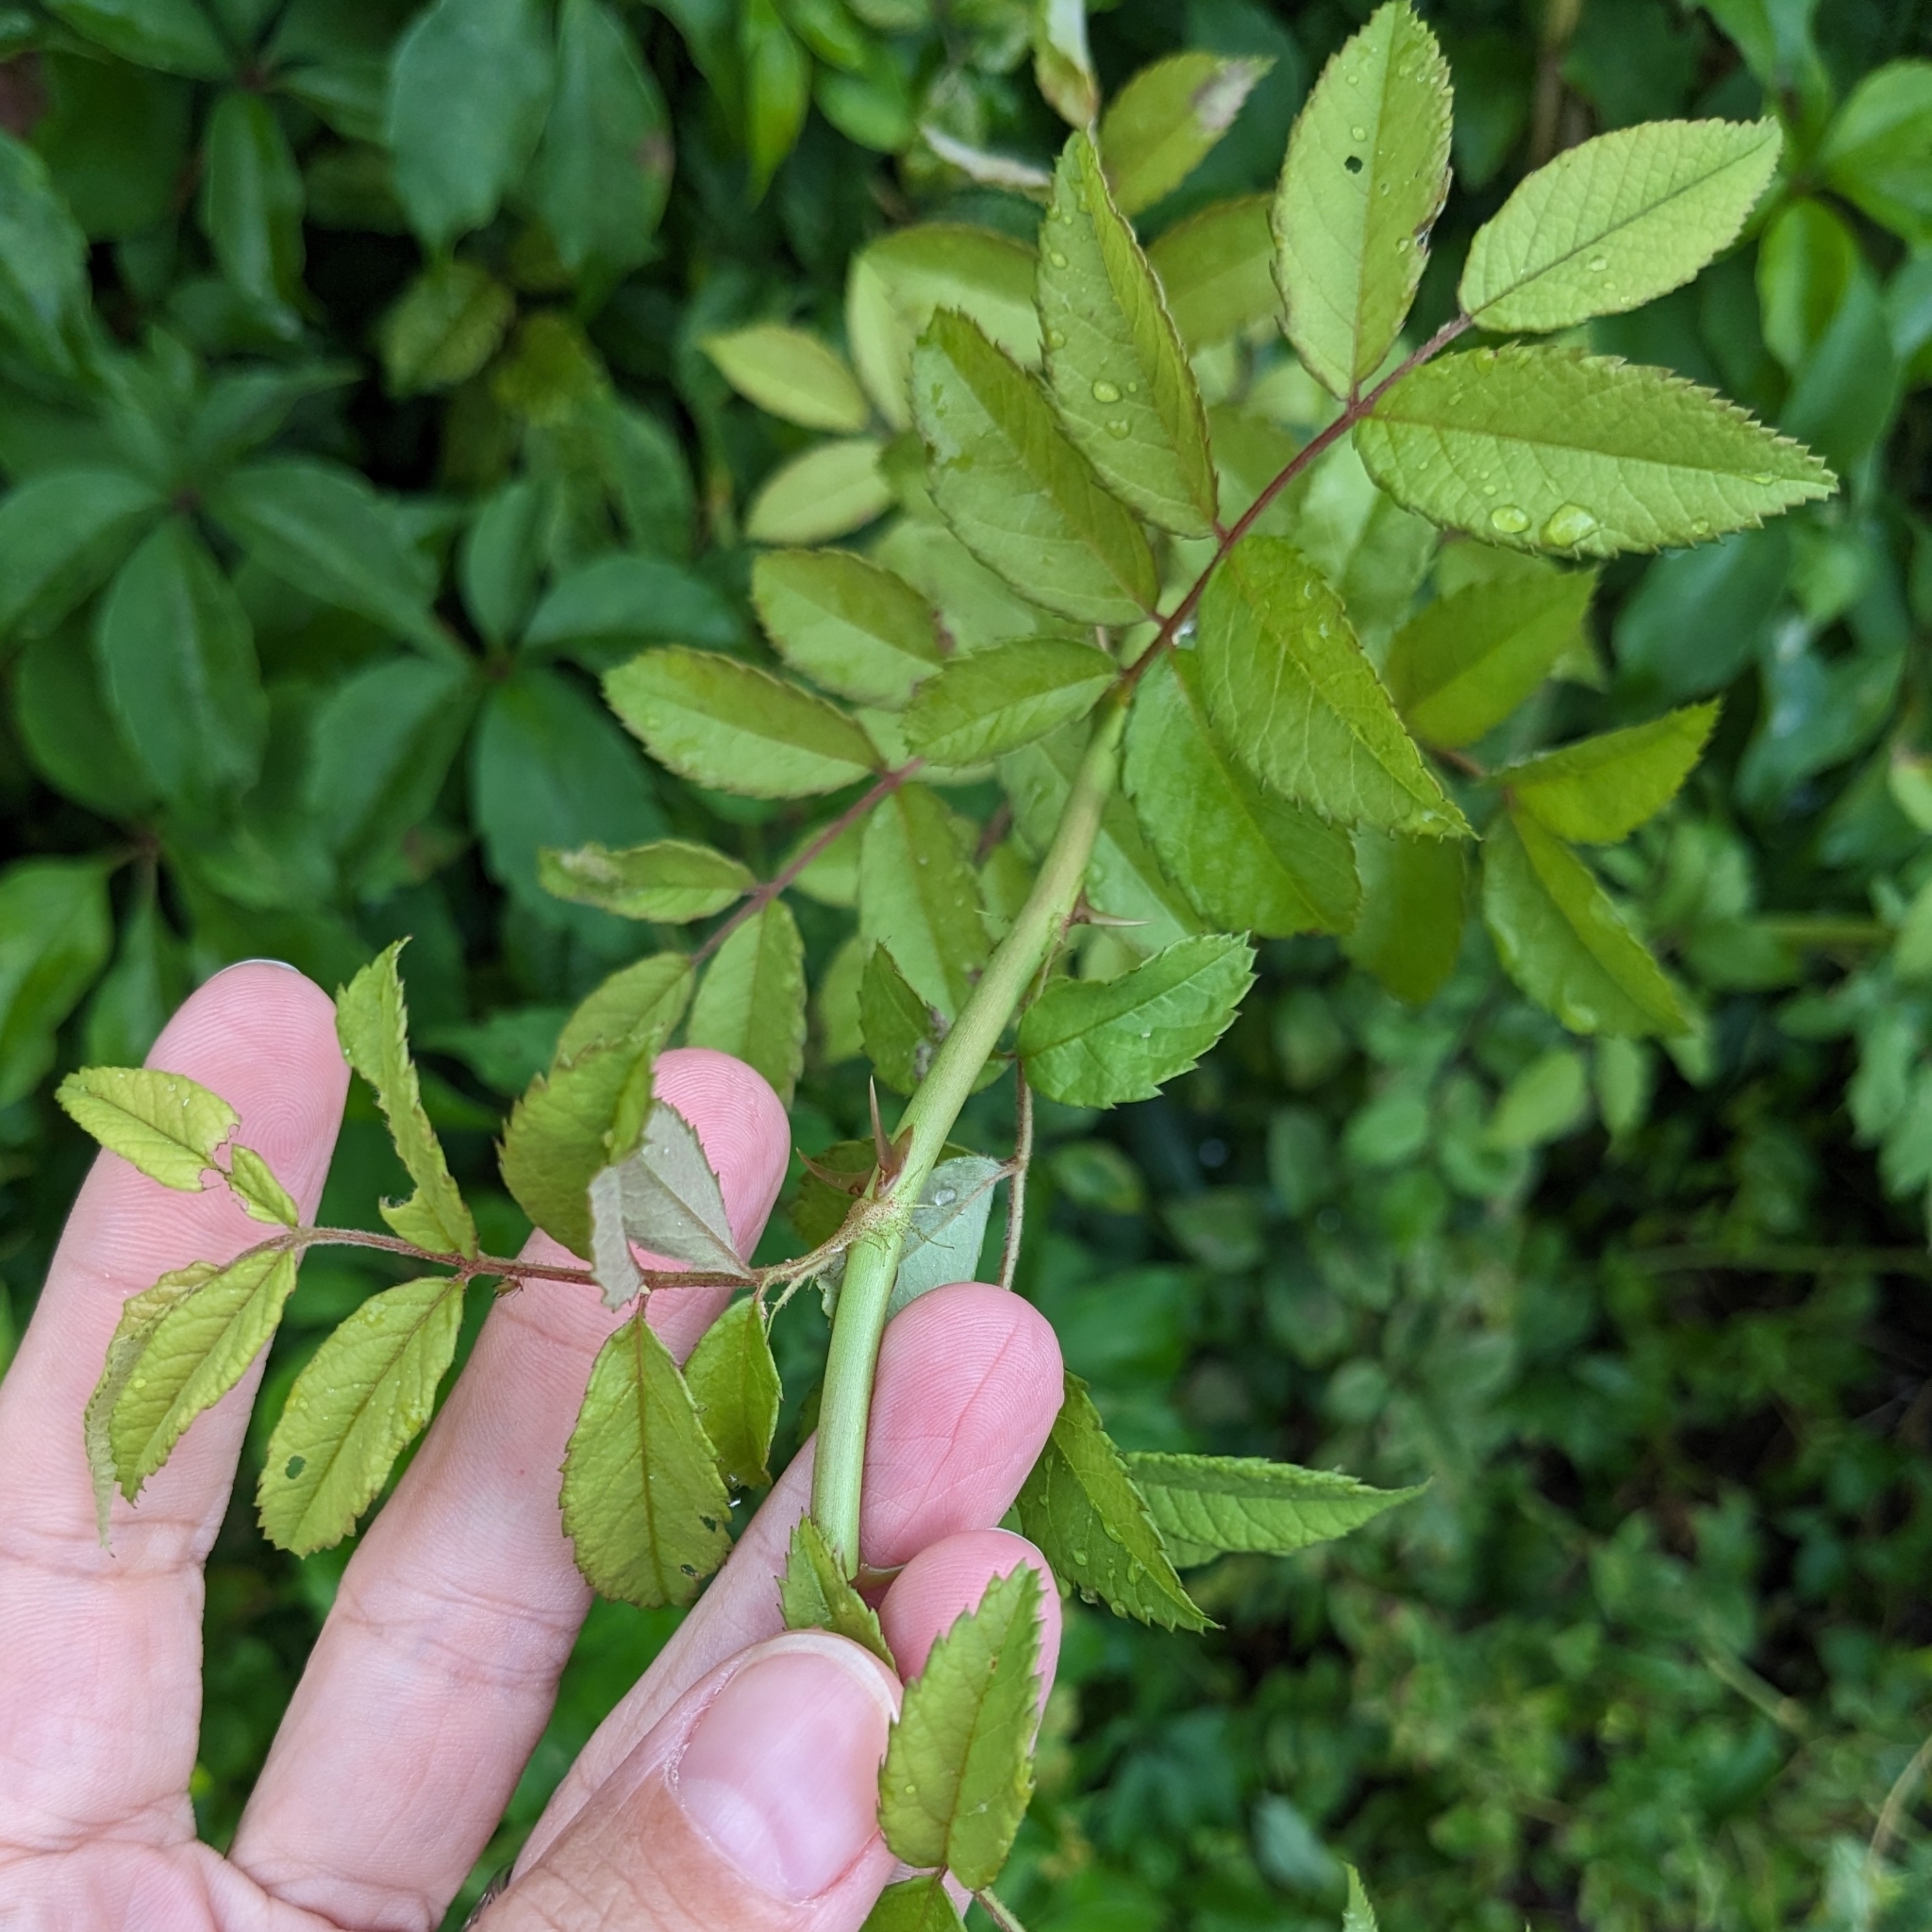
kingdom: Plantae
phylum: Tracheophyta
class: Magnoliopsida
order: Rosales
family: Rosaceae
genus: Rosa
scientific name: Rosa multiflora
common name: Multiflora rose
